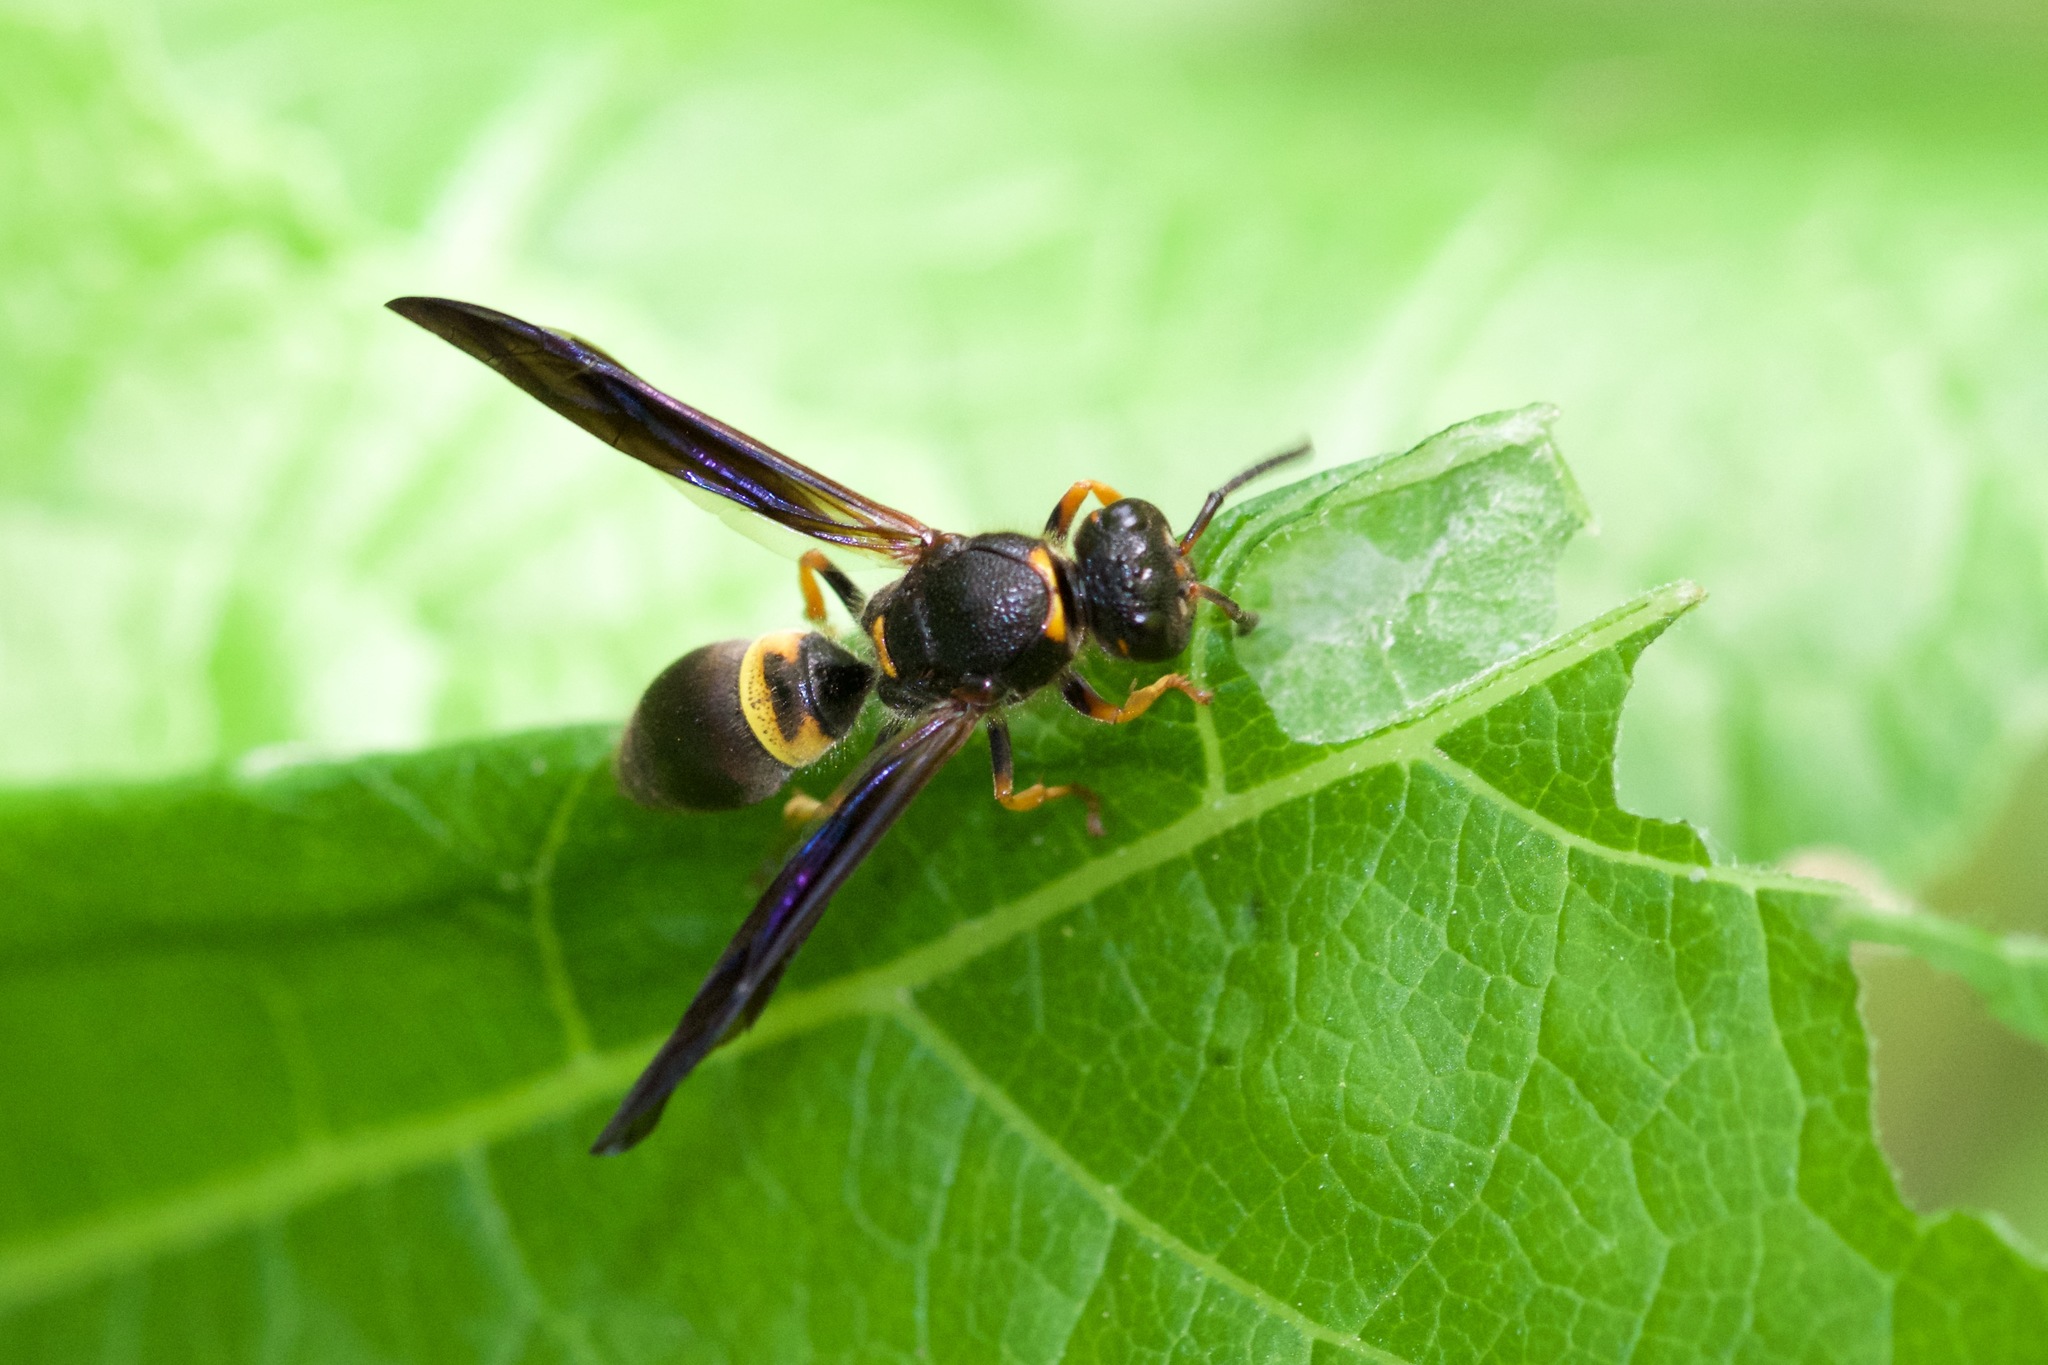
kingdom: Animalia
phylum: Arthropoda
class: Insecta
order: Hymenoptera
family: Vespidae
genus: Ancistrocerus
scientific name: Ancistrocerus unifasciatus
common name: One-banded mason wasp
